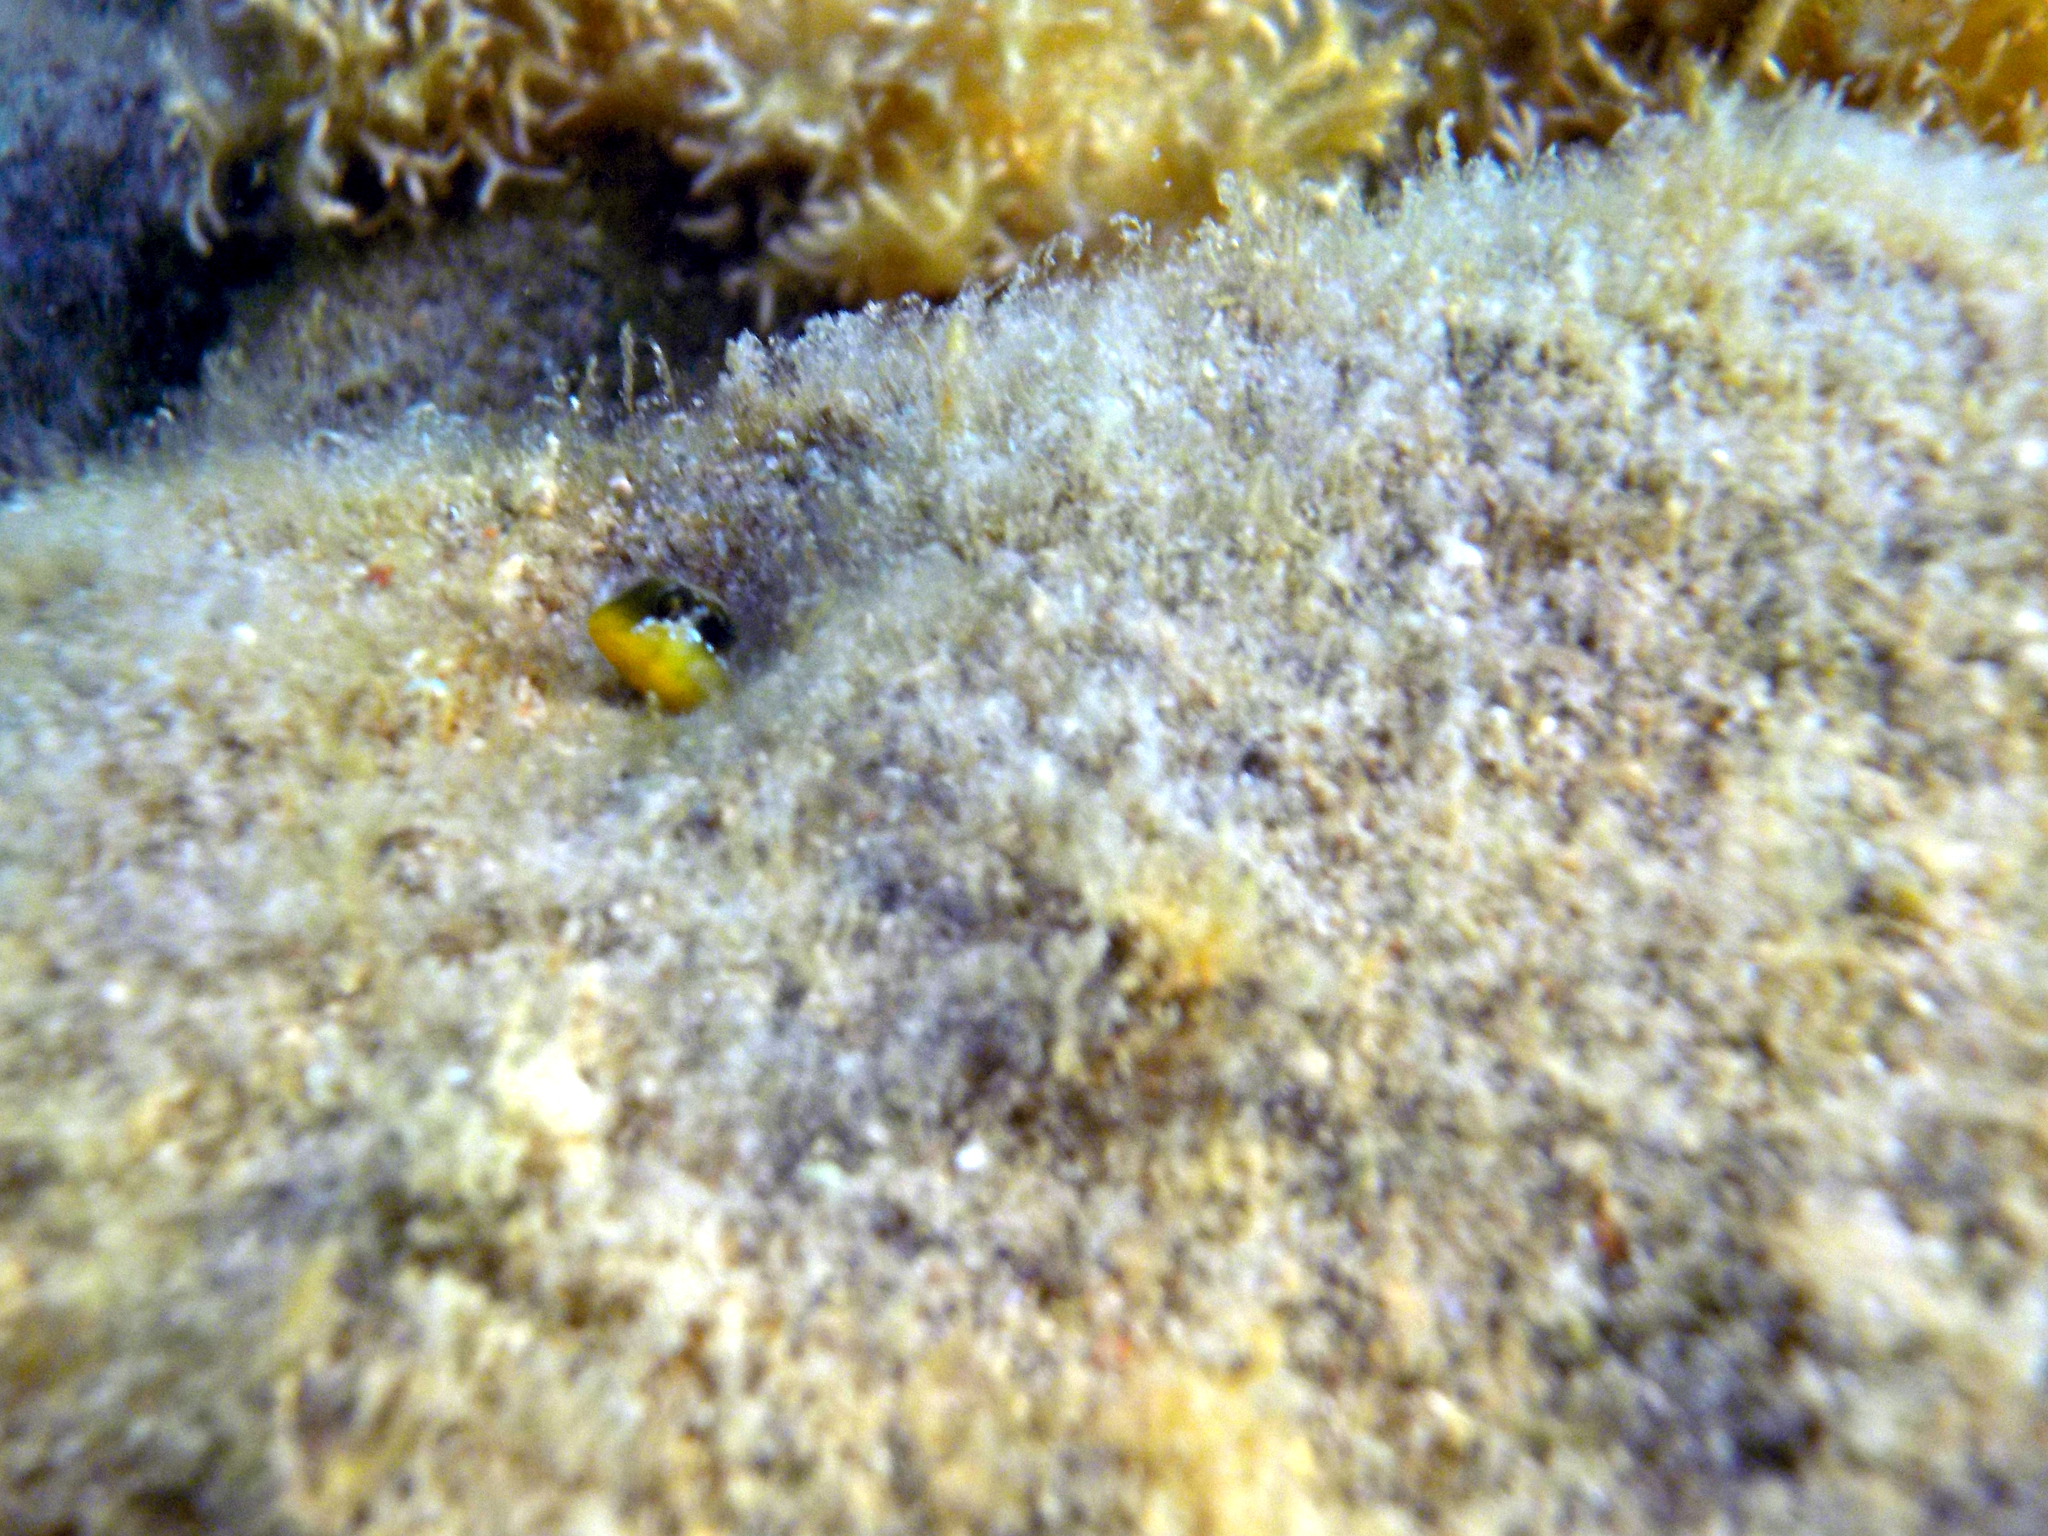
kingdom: Animalia
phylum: Chordata
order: Perciformes
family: Blenniidae
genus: Microlipophrys
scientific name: Microlipophrys dalmatinus
